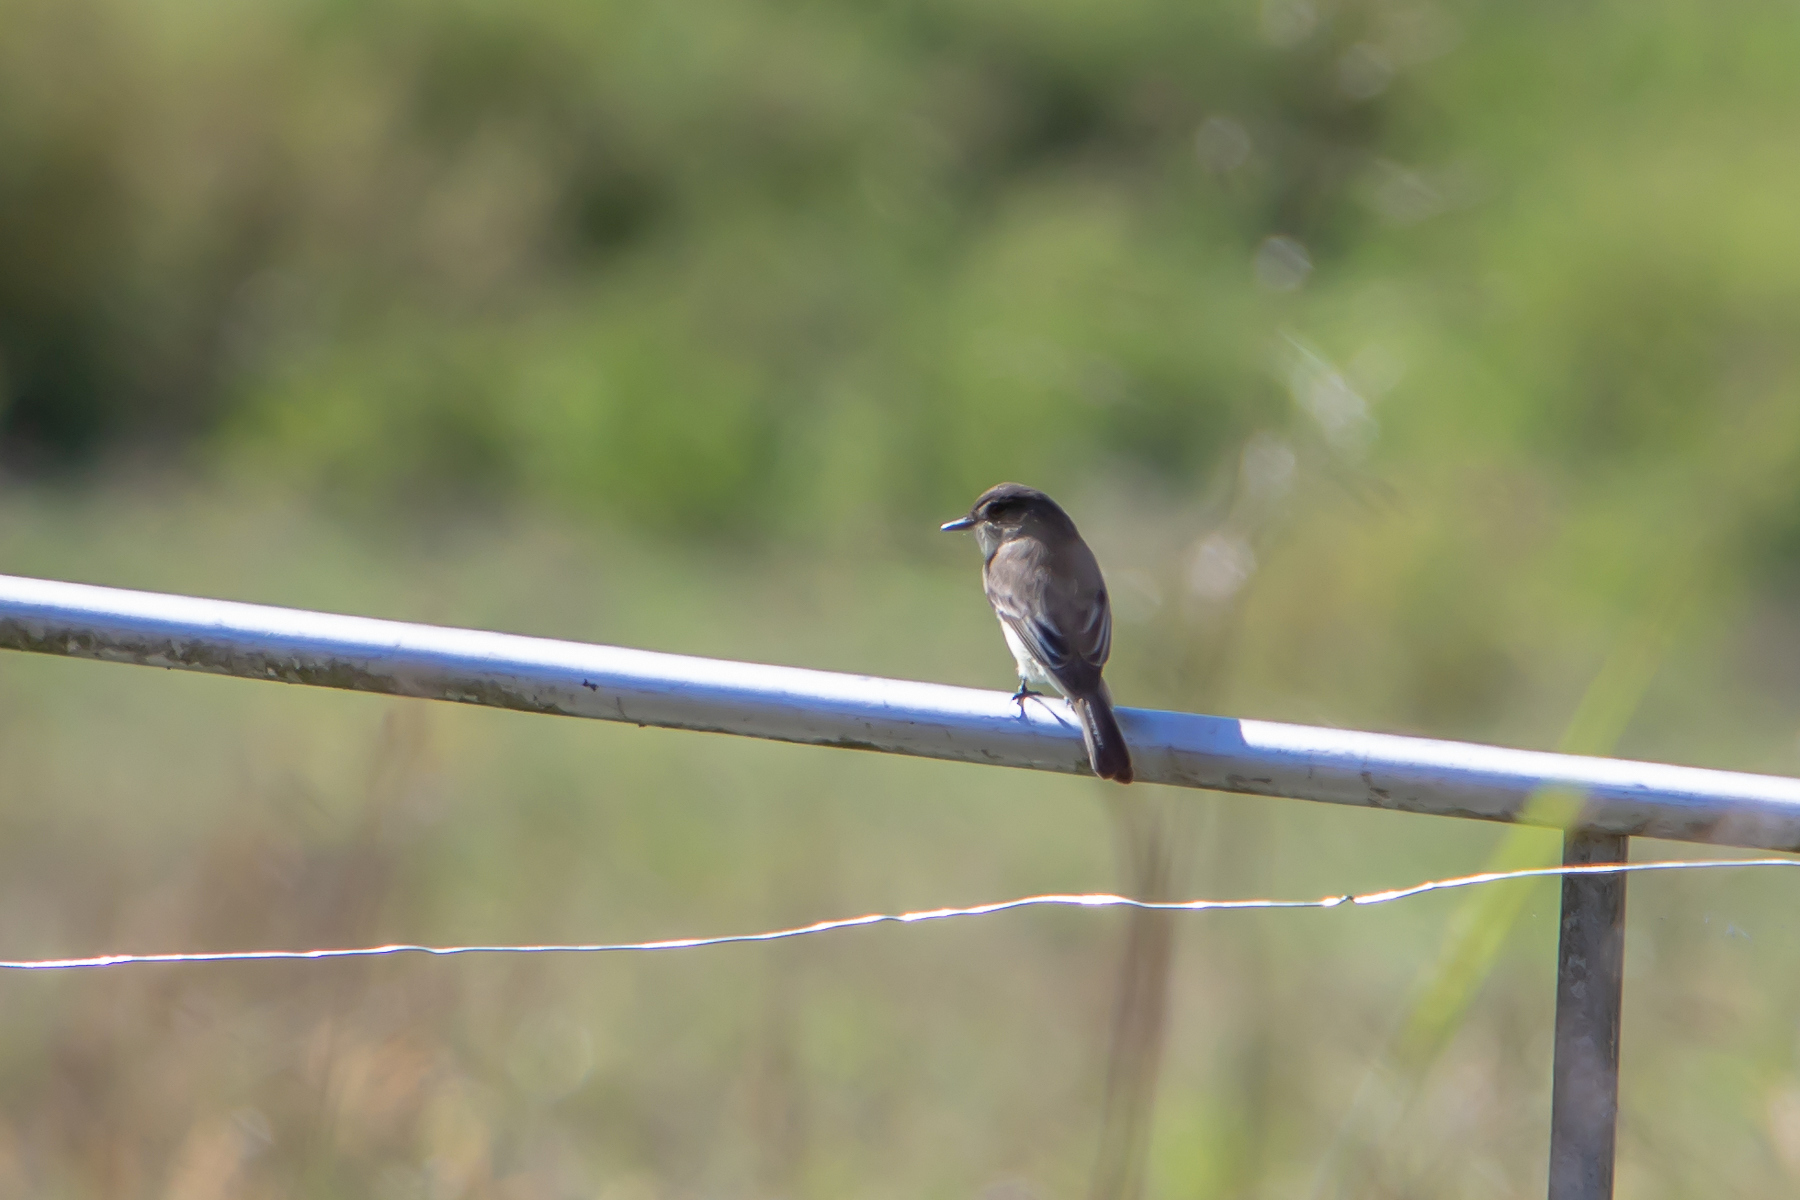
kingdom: Animalia
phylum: Chordata
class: Aves
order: Passeriformes
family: Tyrannidae
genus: Sayornis
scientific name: Sayornis phoebe
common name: Eastern phoebe
